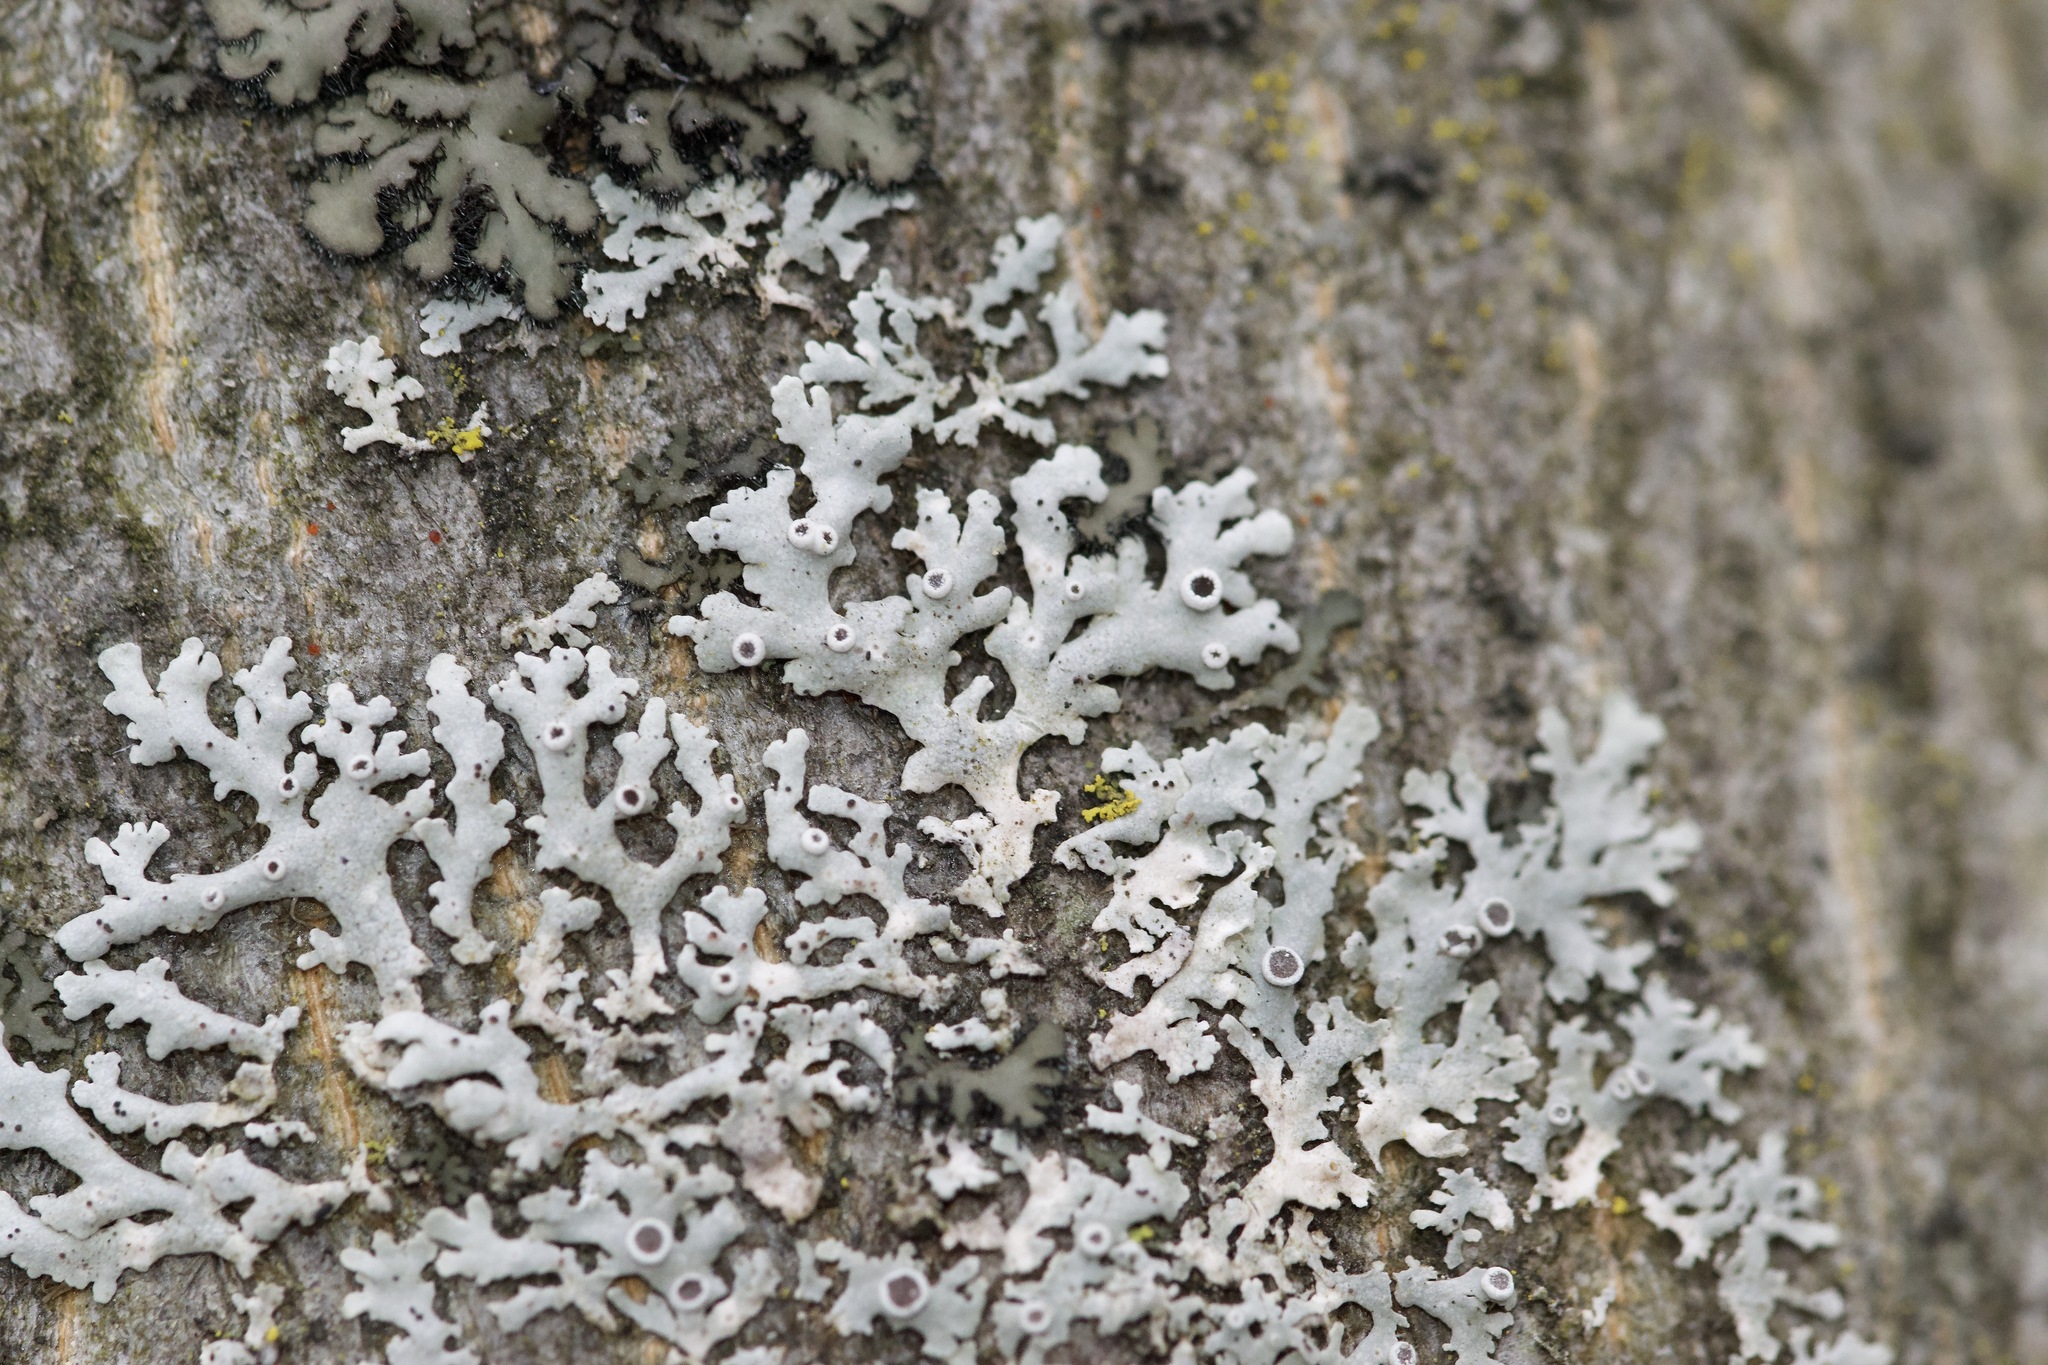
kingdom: Fungi
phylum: Ascomycota
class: Lecanoromycetes
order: Caliciales
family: Physciaceae
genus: Physcia
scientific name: Physcia stellaris
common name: Star rosette lichen
